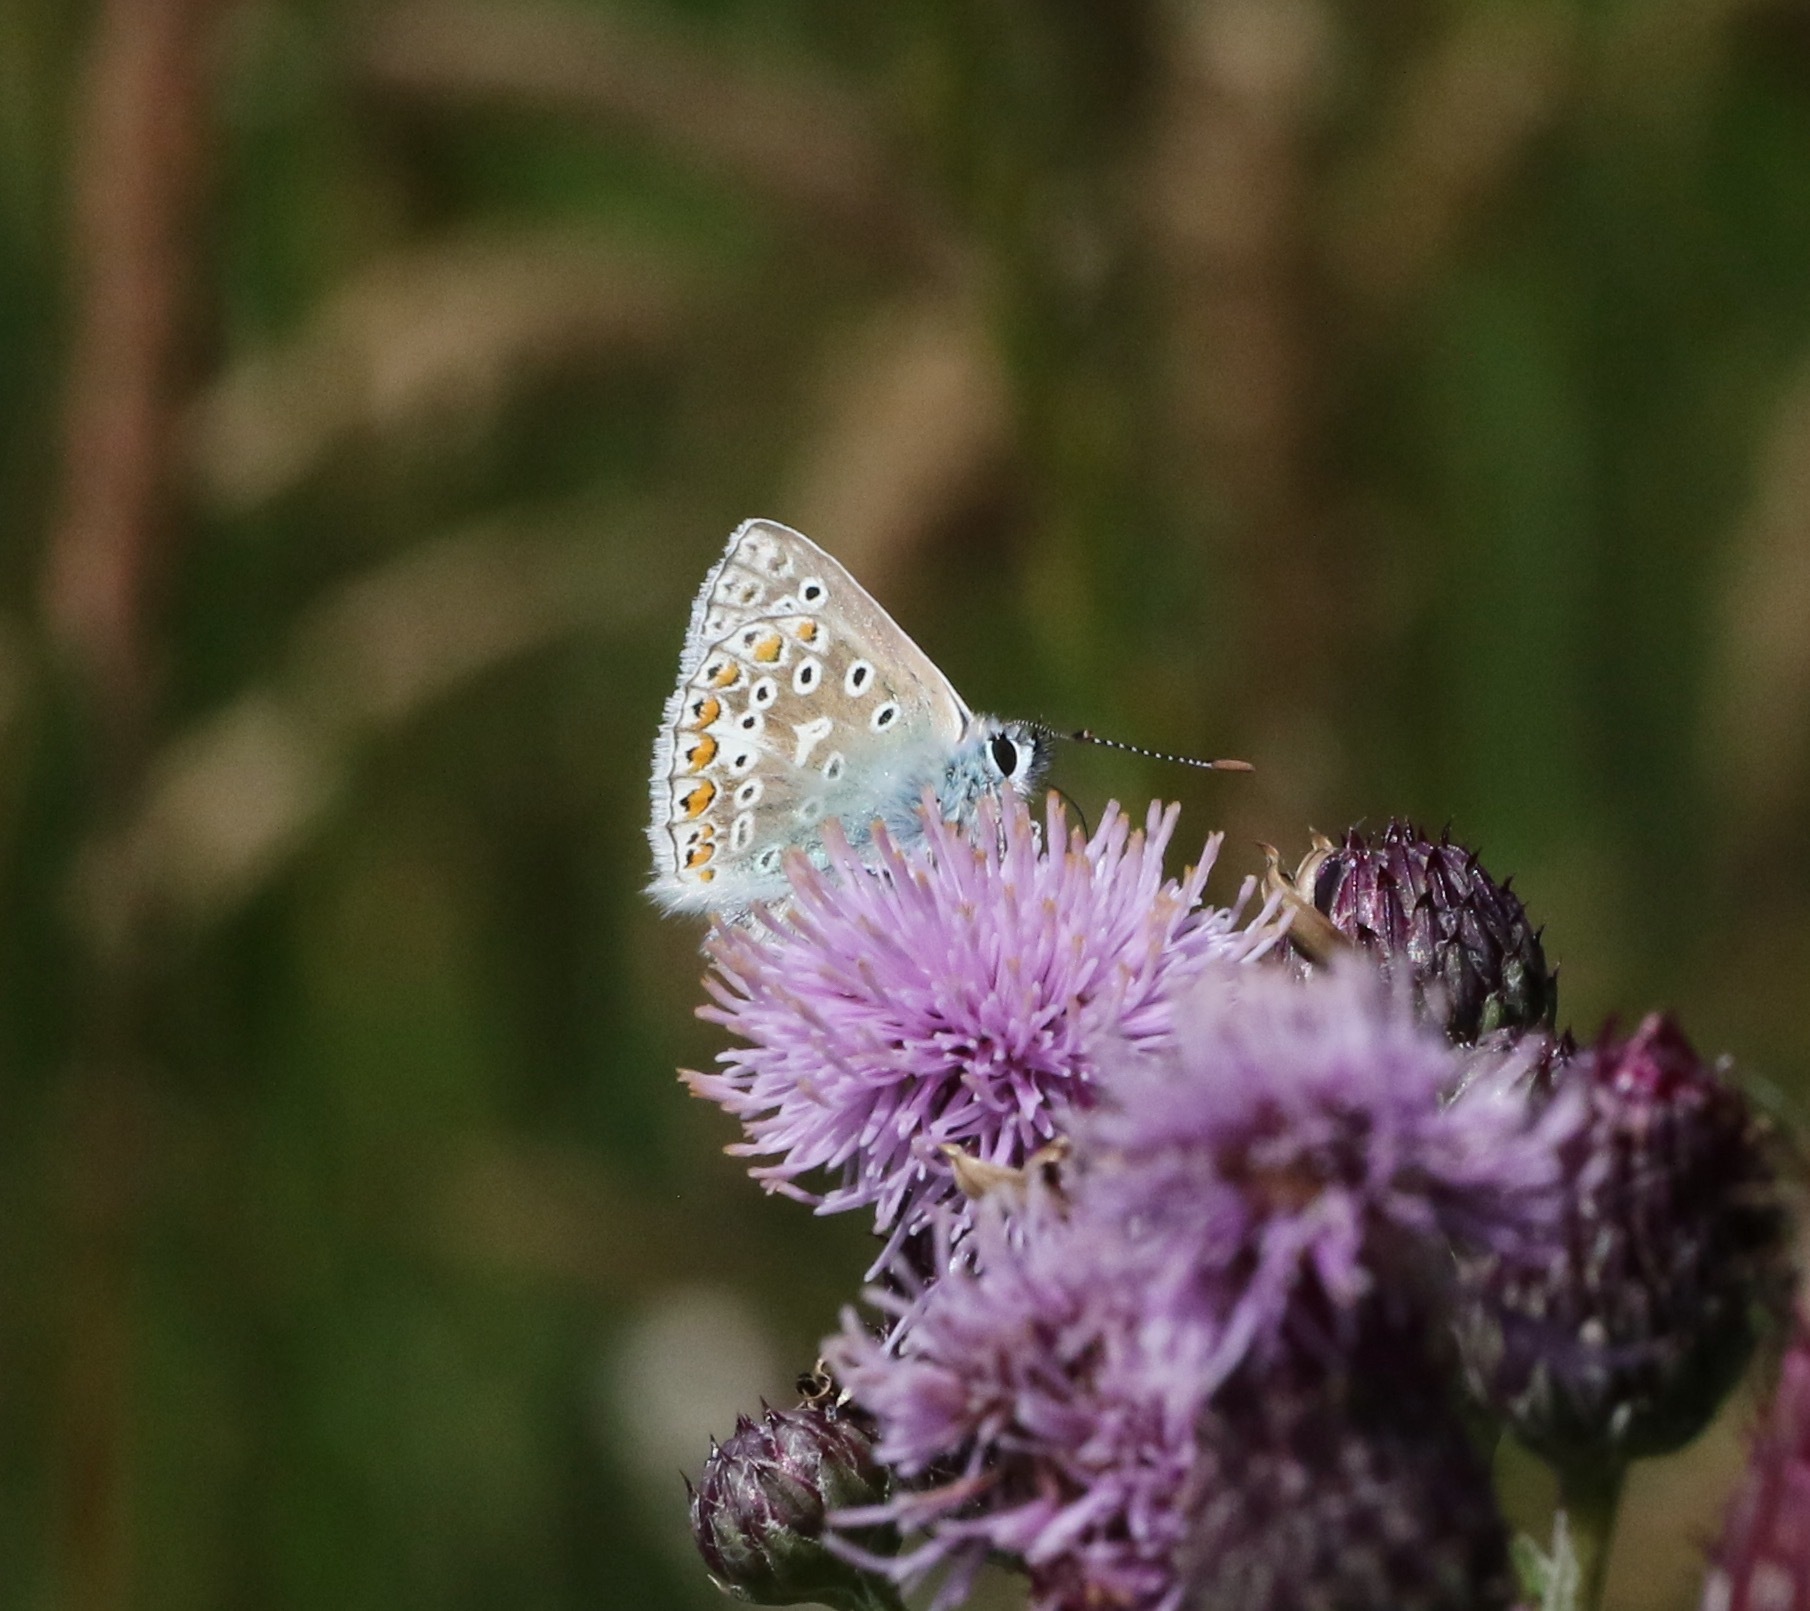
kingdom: Animalia
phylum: Arthropoda
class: Insecta
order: Lepidoptera
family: Lycaenidae
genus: Polyommatus
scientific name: Polyommatus icarus
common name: Common blue
